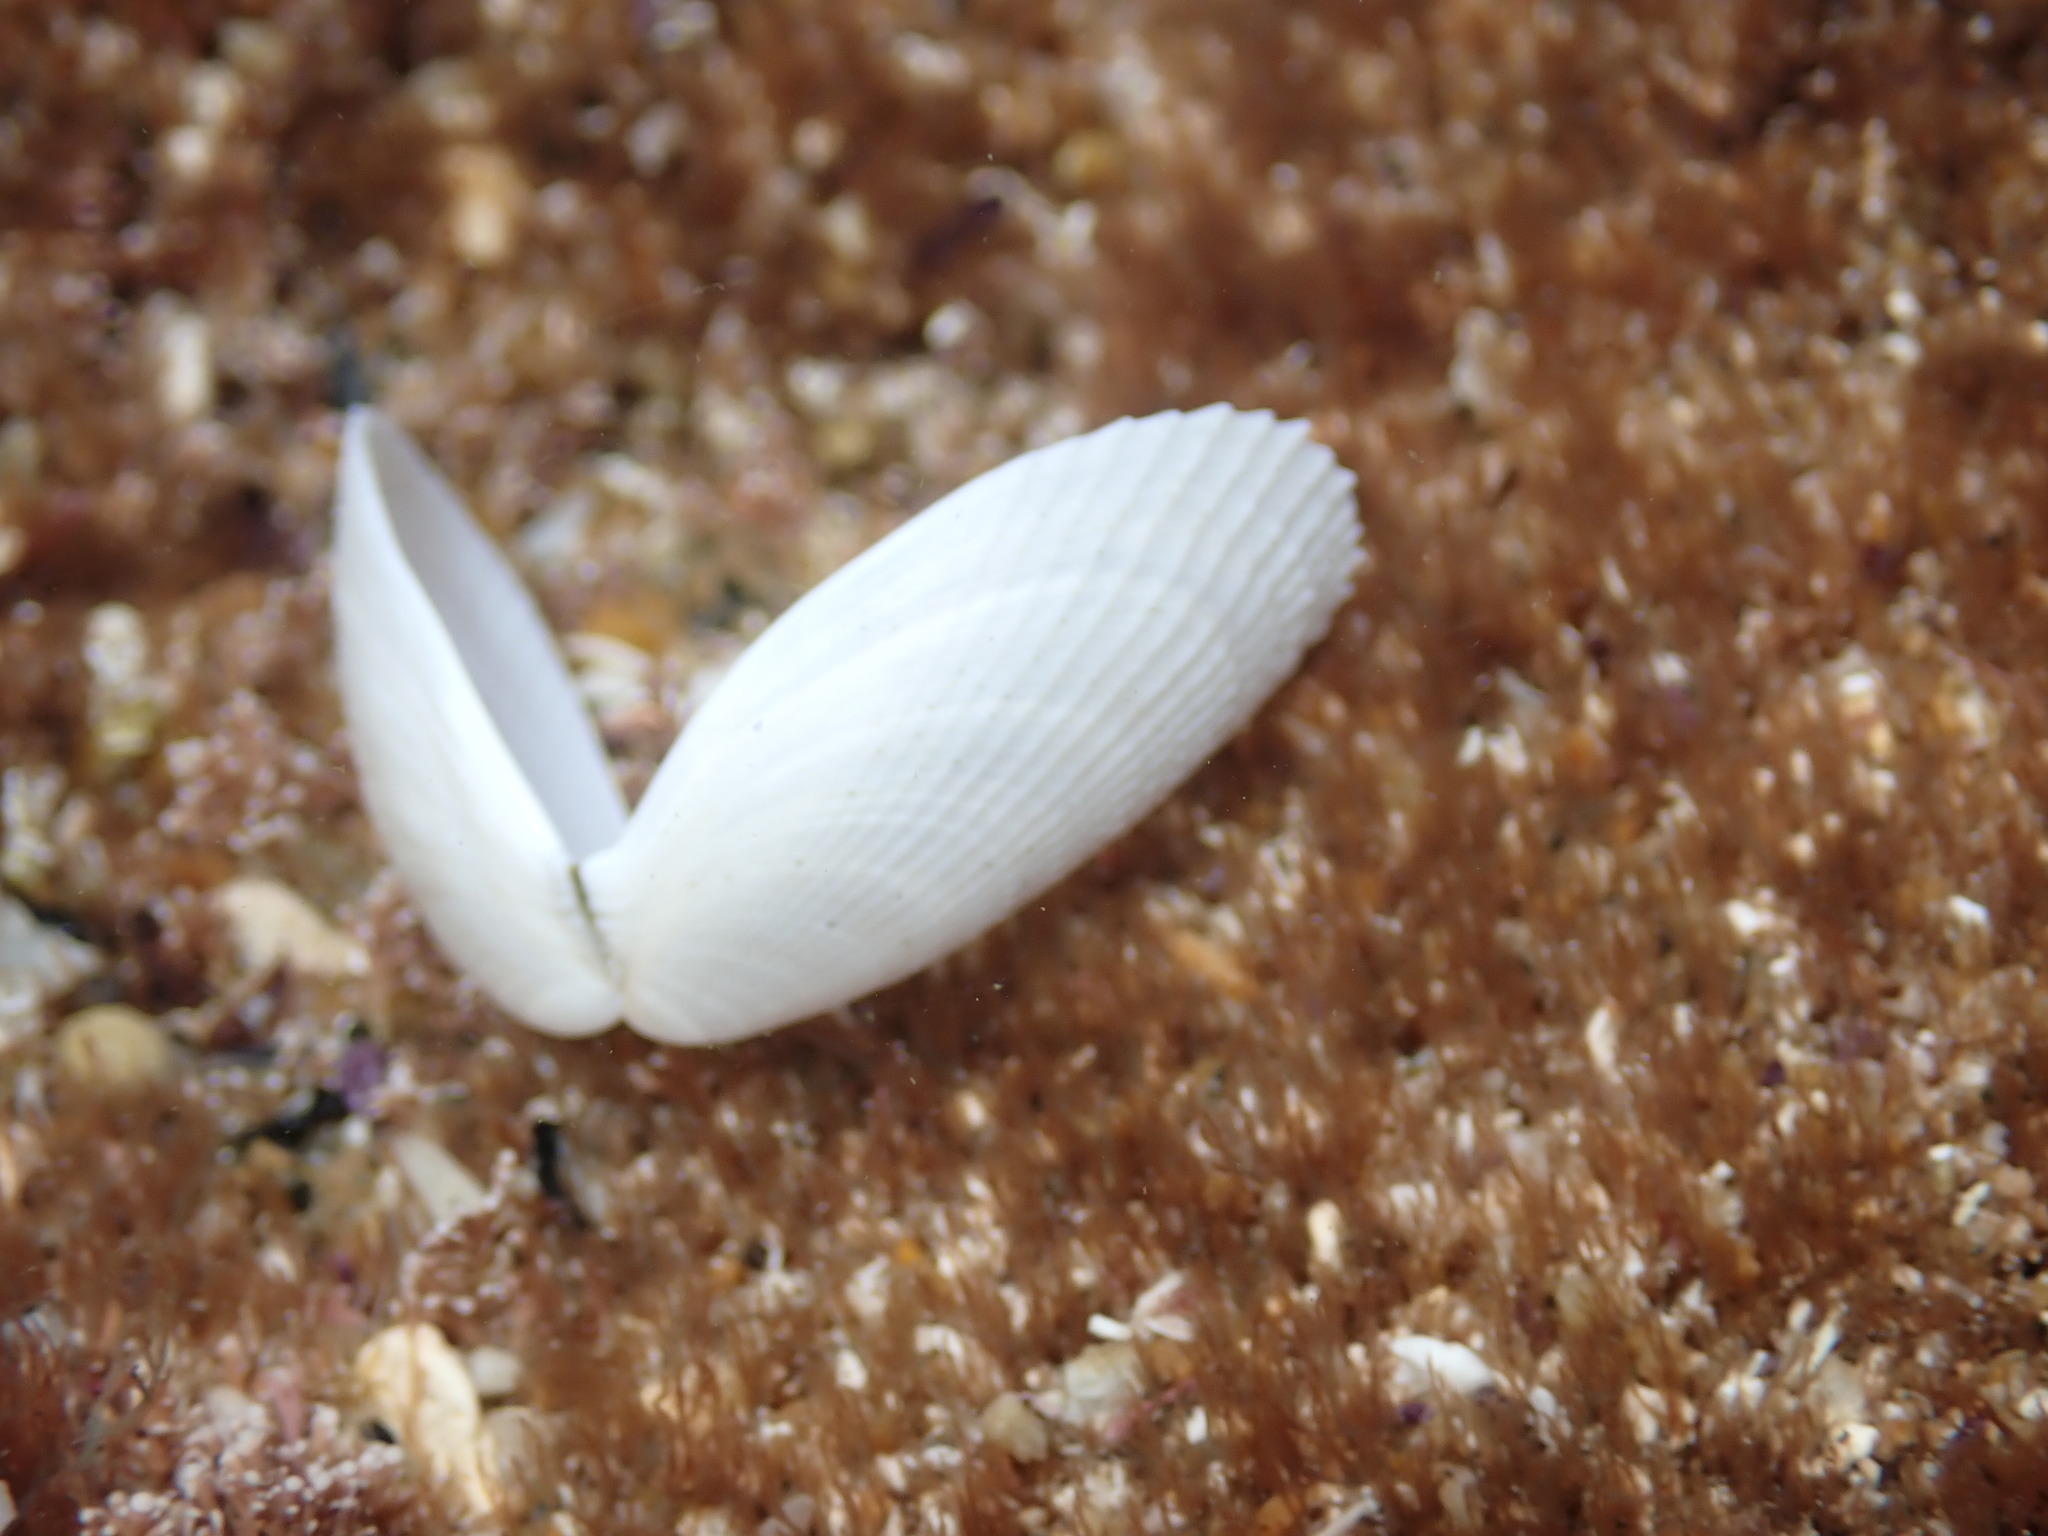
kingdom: Animalia
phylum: Mollusca
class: Bivalvia
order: Limida
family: Limidae
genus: Limatula
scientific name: Limatula strangei
